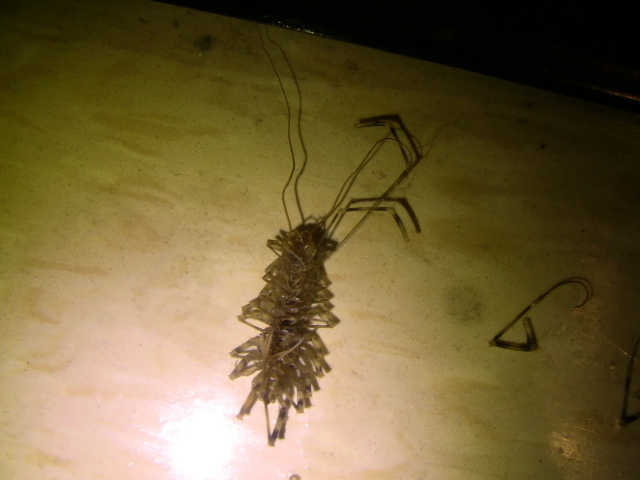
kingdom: Animalia
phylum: Arthropoda
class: Chilopoda
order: Scutigeromorpha
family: Scutigeridae
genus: Scutigera
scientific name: Scutigera coleoptrata
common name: House centipede
